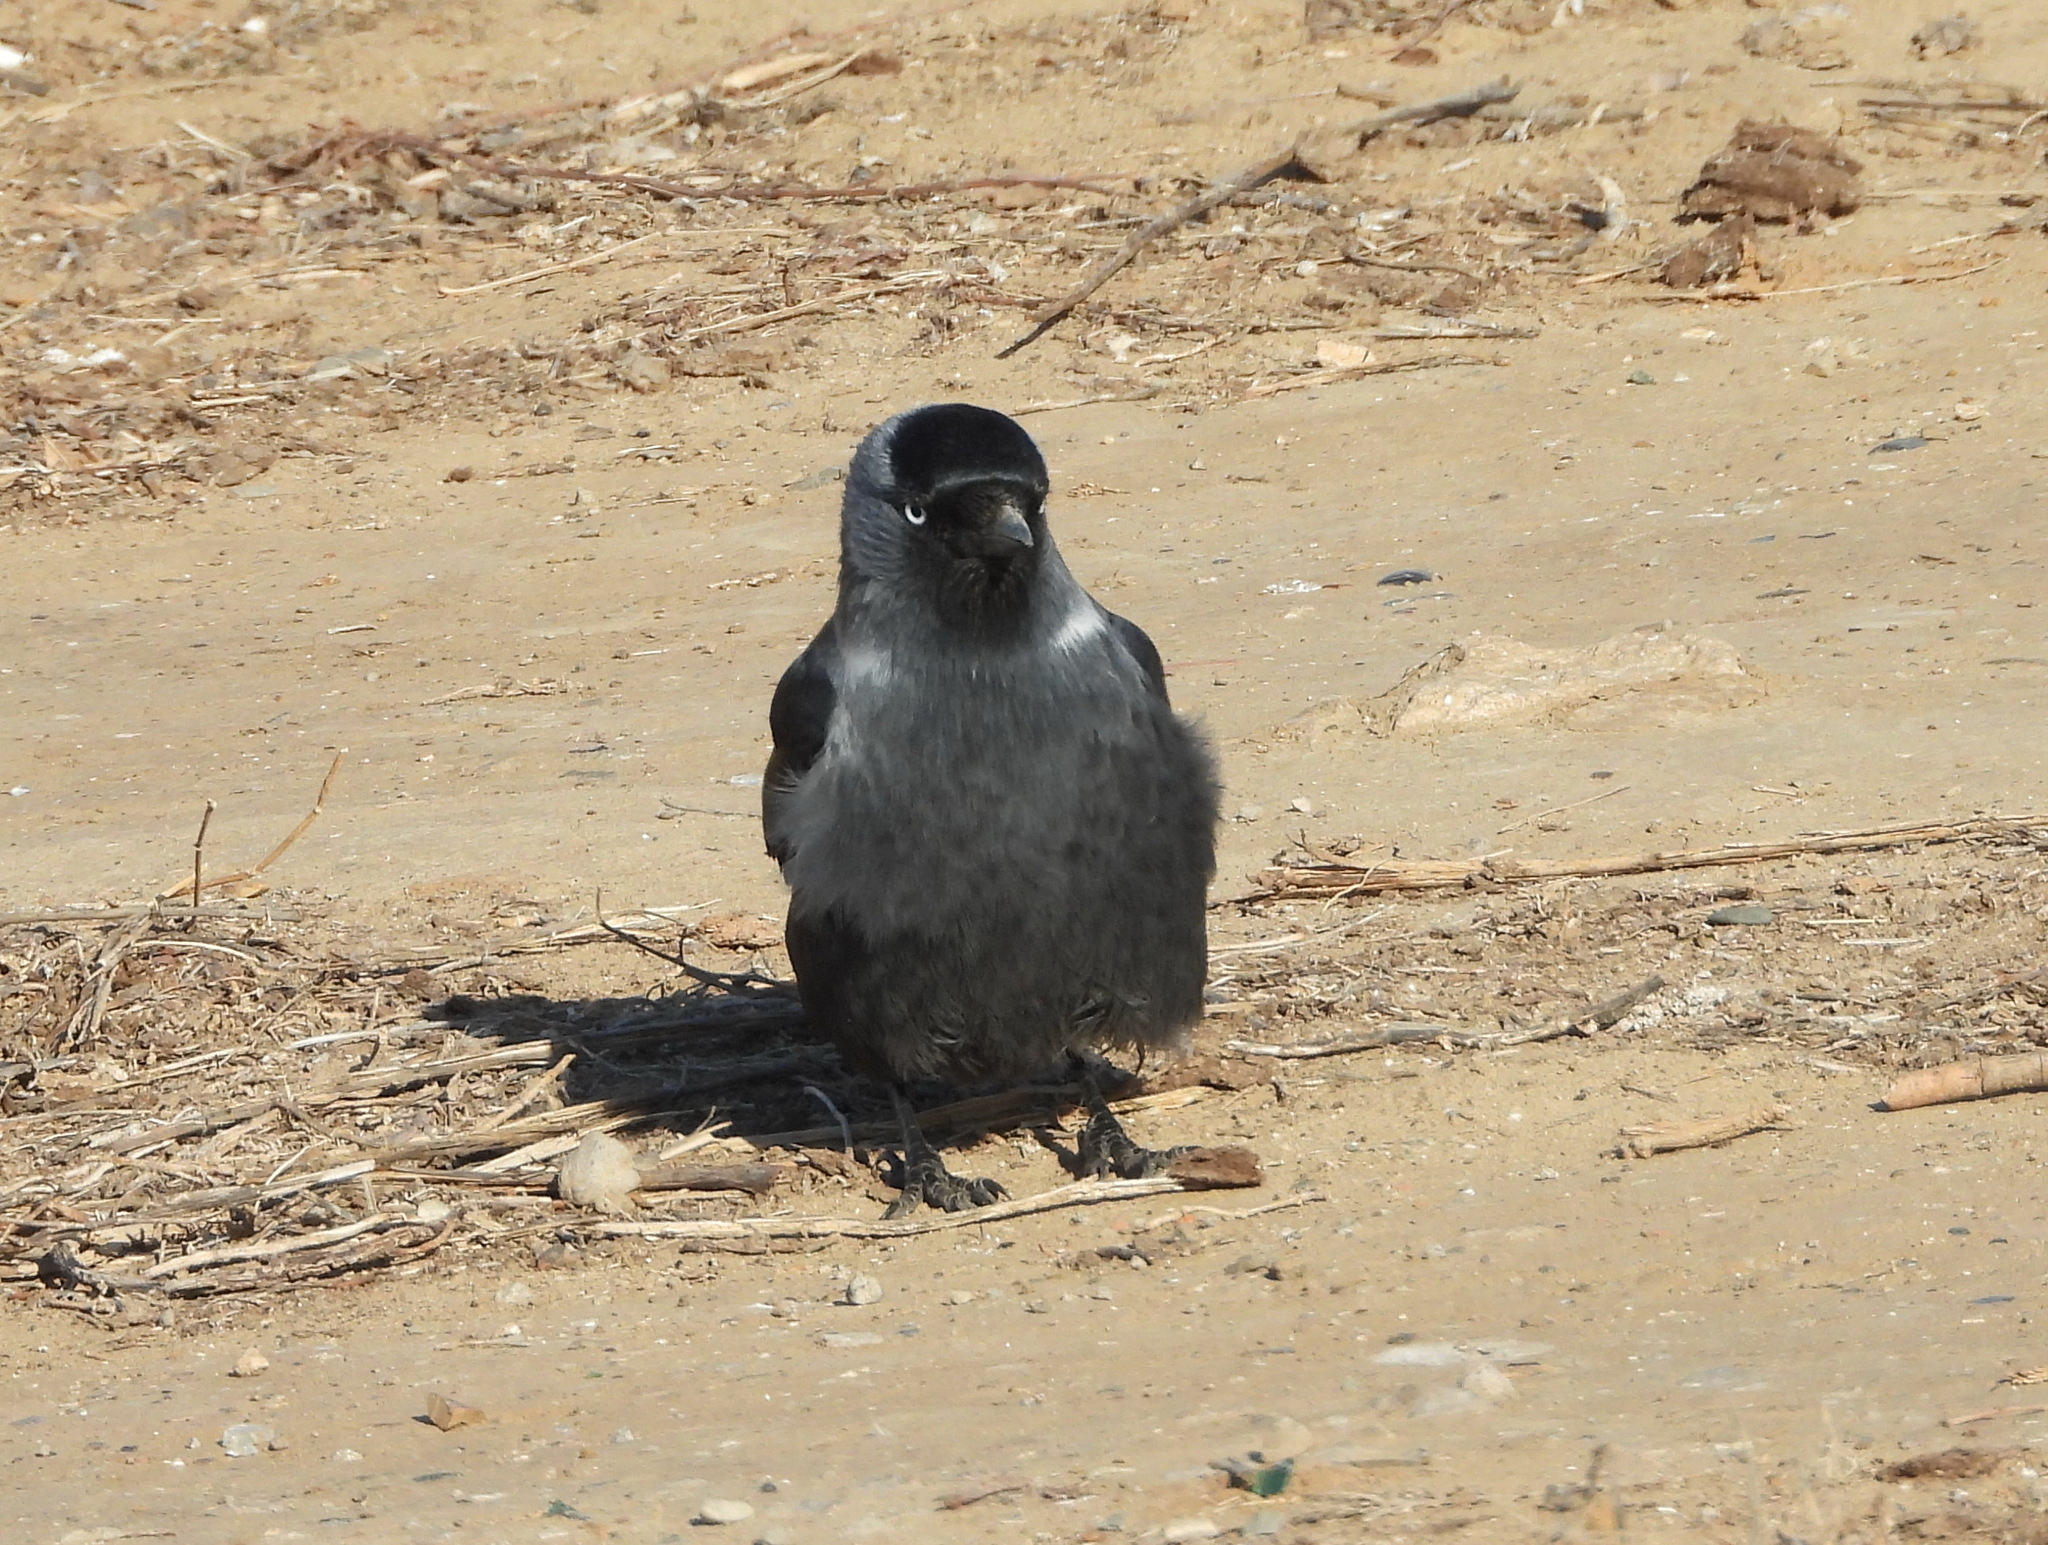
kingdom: Animalia
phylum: Chordata
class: Aves
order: Passeriformes
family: Corvidae
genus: Coloeus
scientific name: Coloeus monedula
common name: Western jackdaw
